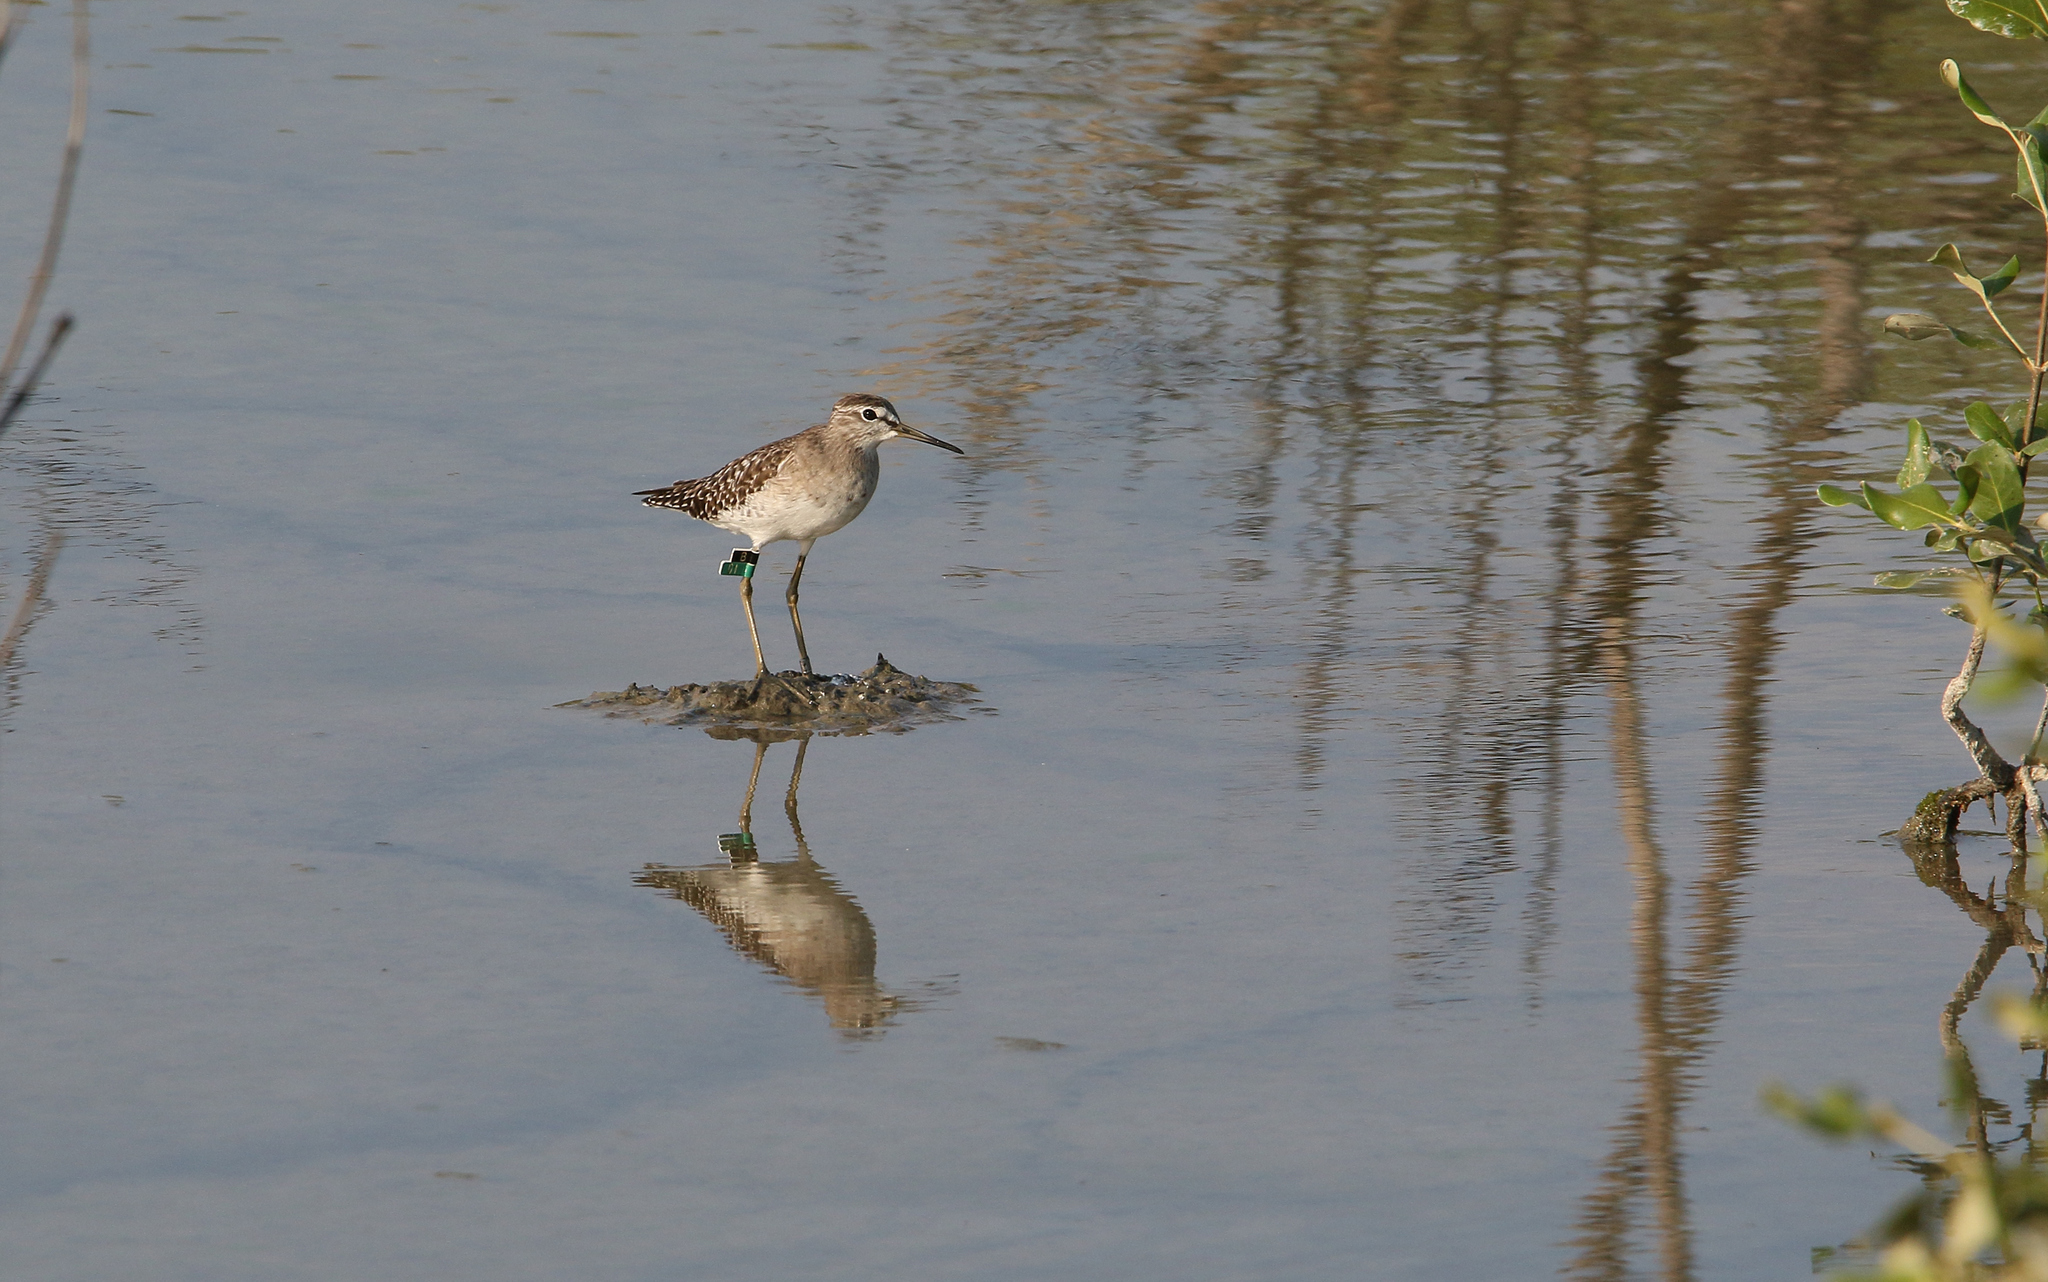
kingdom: Animalia
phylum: Chordata
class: Aves
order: Charadriiformes
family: Scolopacidae
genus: Tringa
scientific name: Tringa glareola
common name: Wood sandpiper
